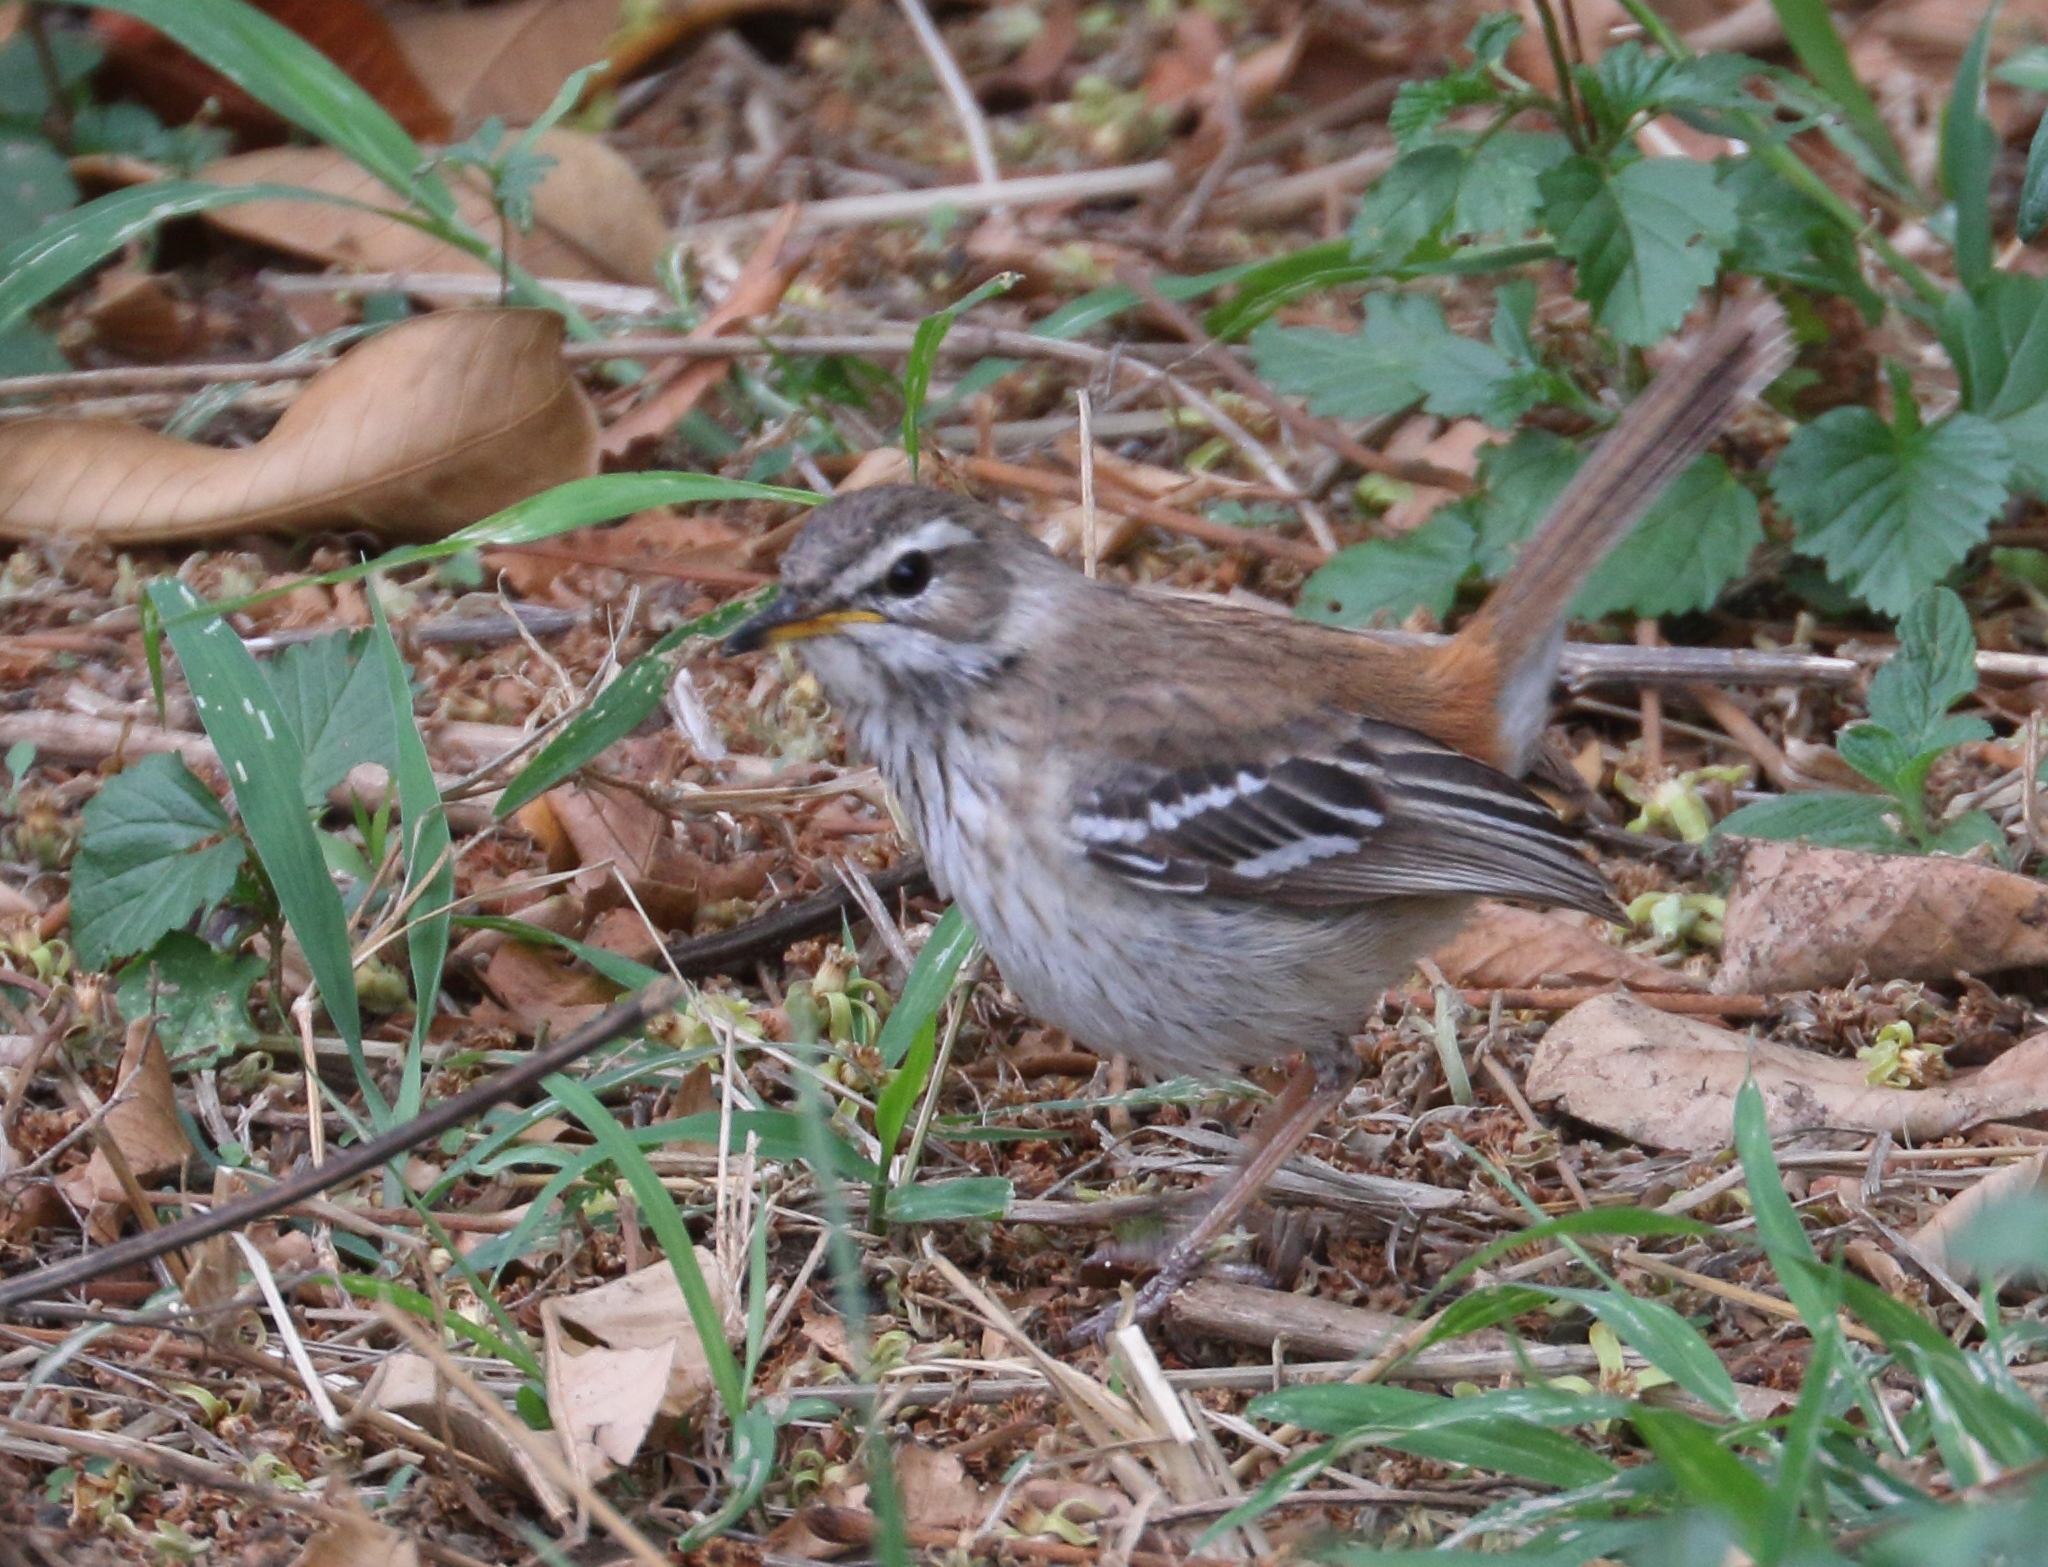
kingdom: Animalia
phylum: Chordata
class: Aves
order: Passeriformes
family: Muscicapidae
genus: Erythropygia
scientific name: Erythropygia leucophrys
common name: White-browed scrub robin
